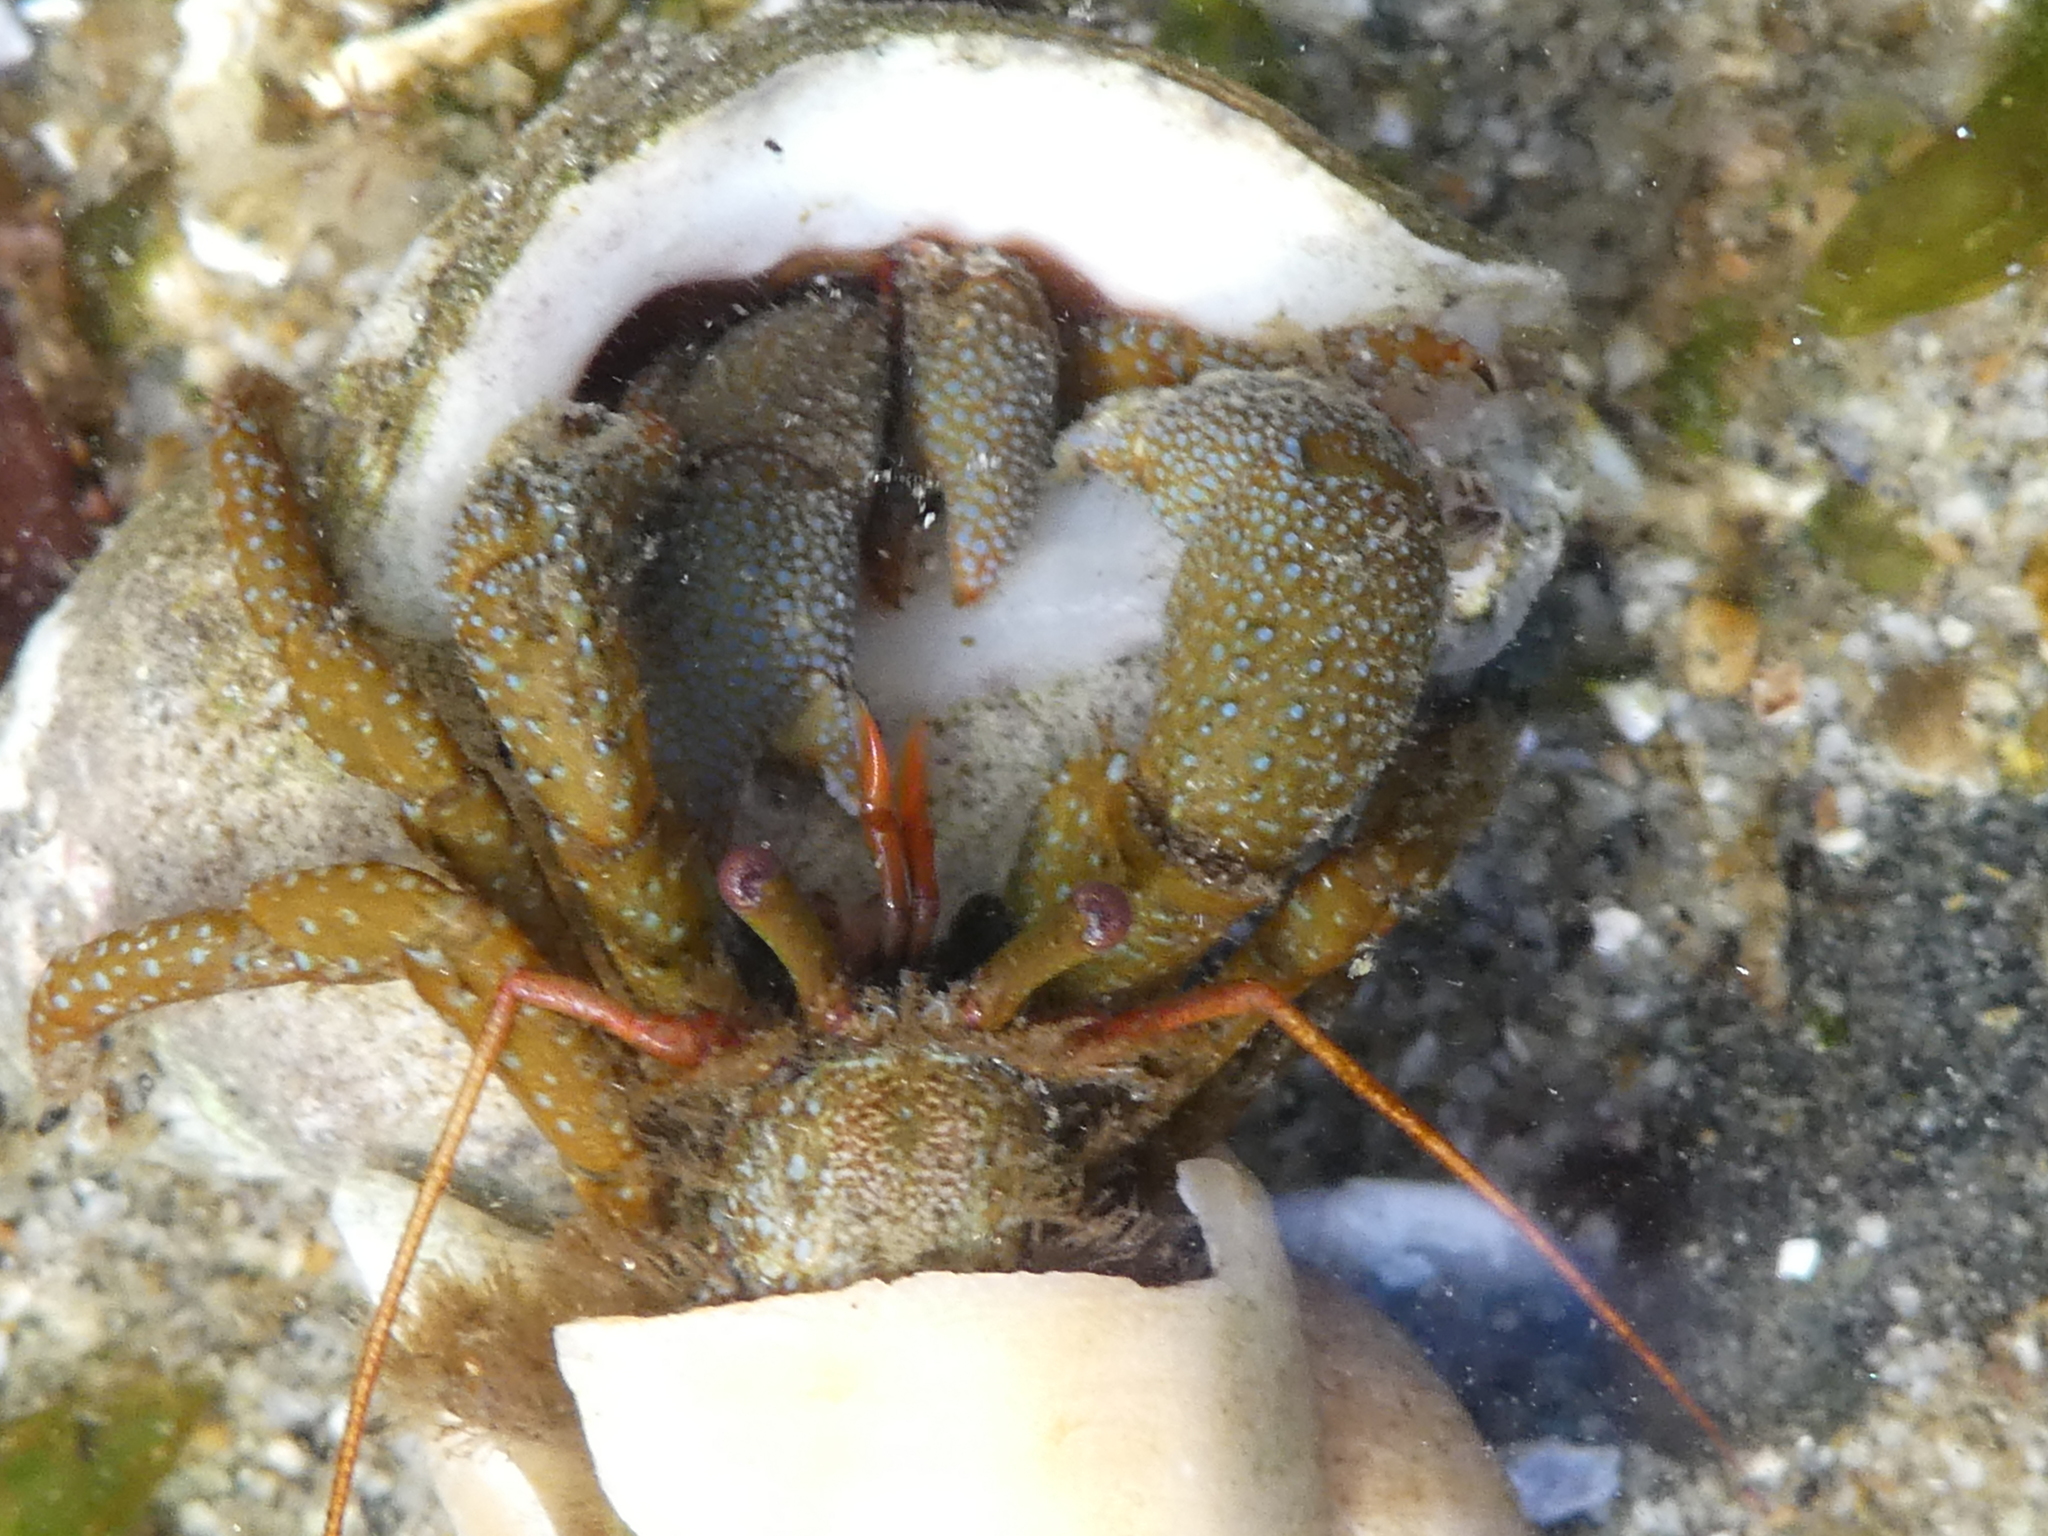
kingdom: Animalia
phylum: Arthropoda
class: Malacostraca
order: Decapoda
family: Paguridae
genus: Pagurus
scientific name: Pagurus granosimanus
